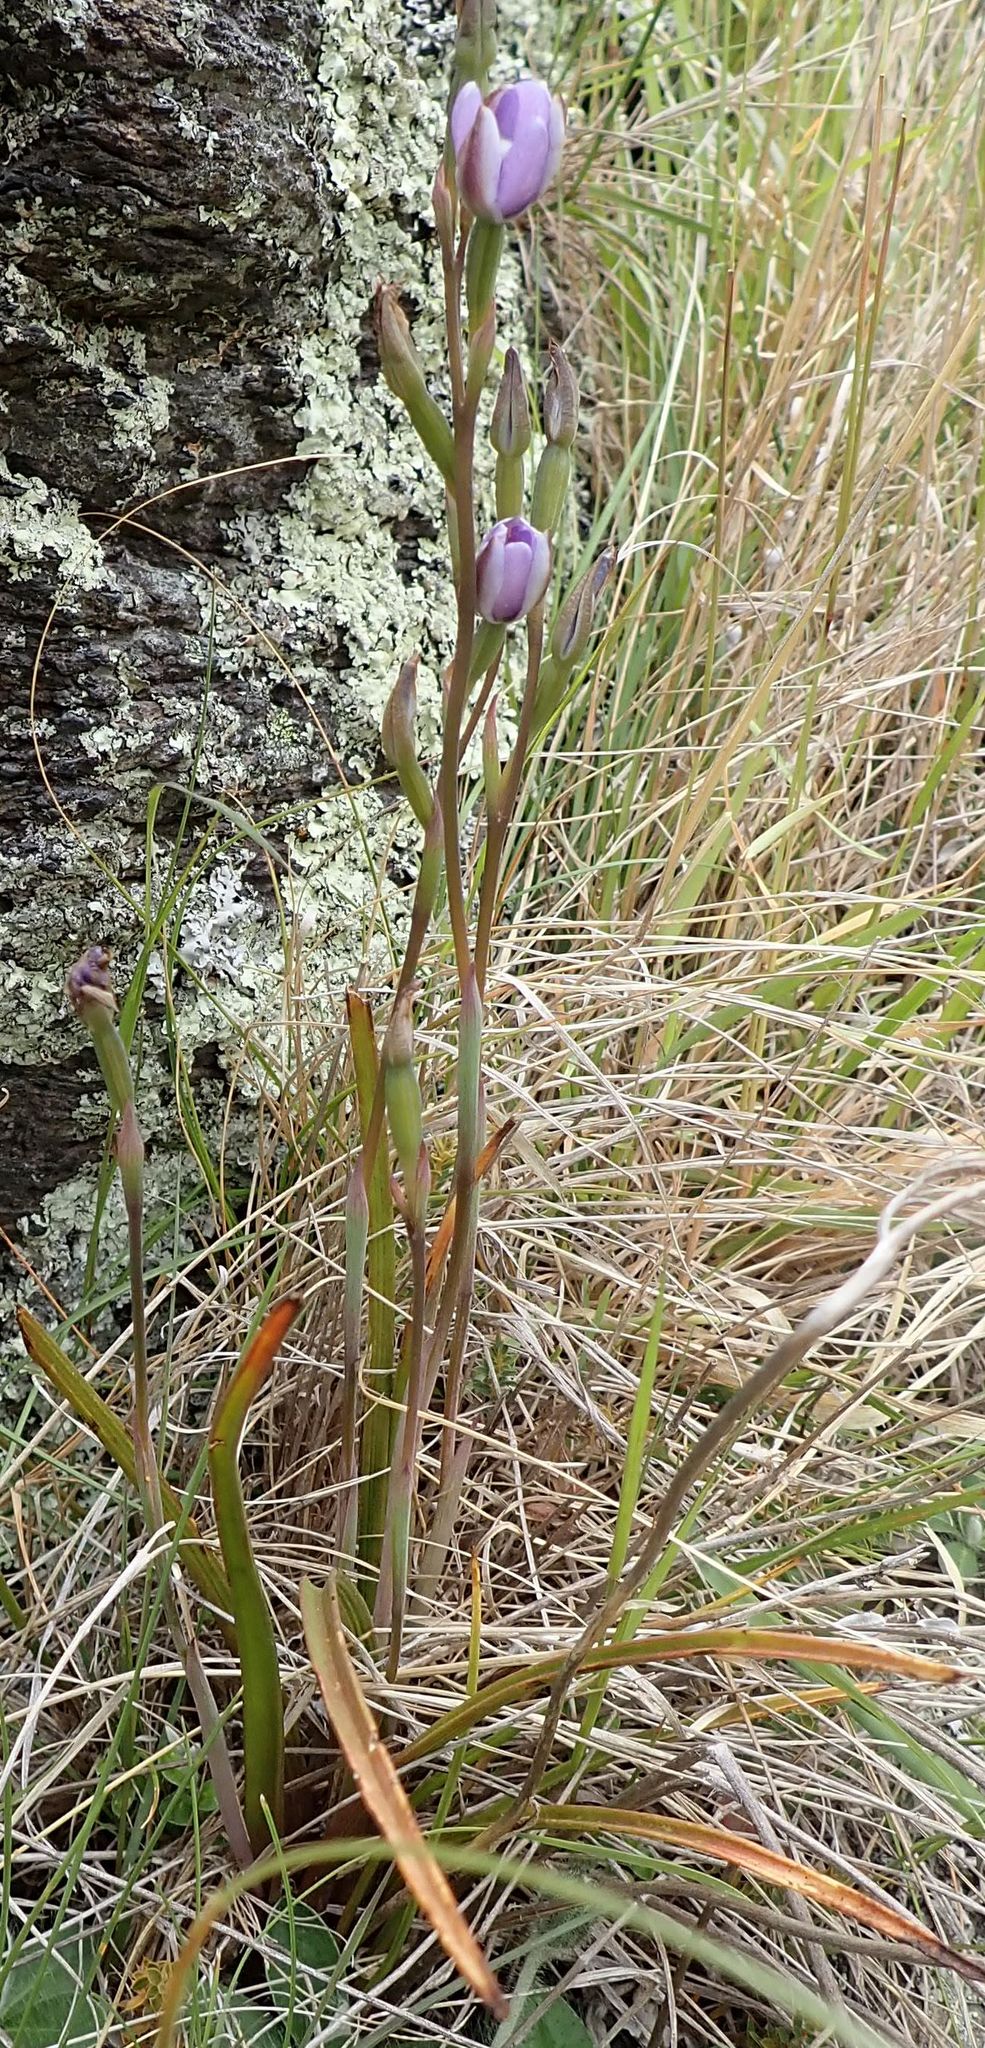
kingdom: Plantae
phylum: Tracheophyta
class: Liliopsida
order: Asparagales
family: Orchidaceae
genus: Thelymitra
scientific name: Thelymitra hatchii
